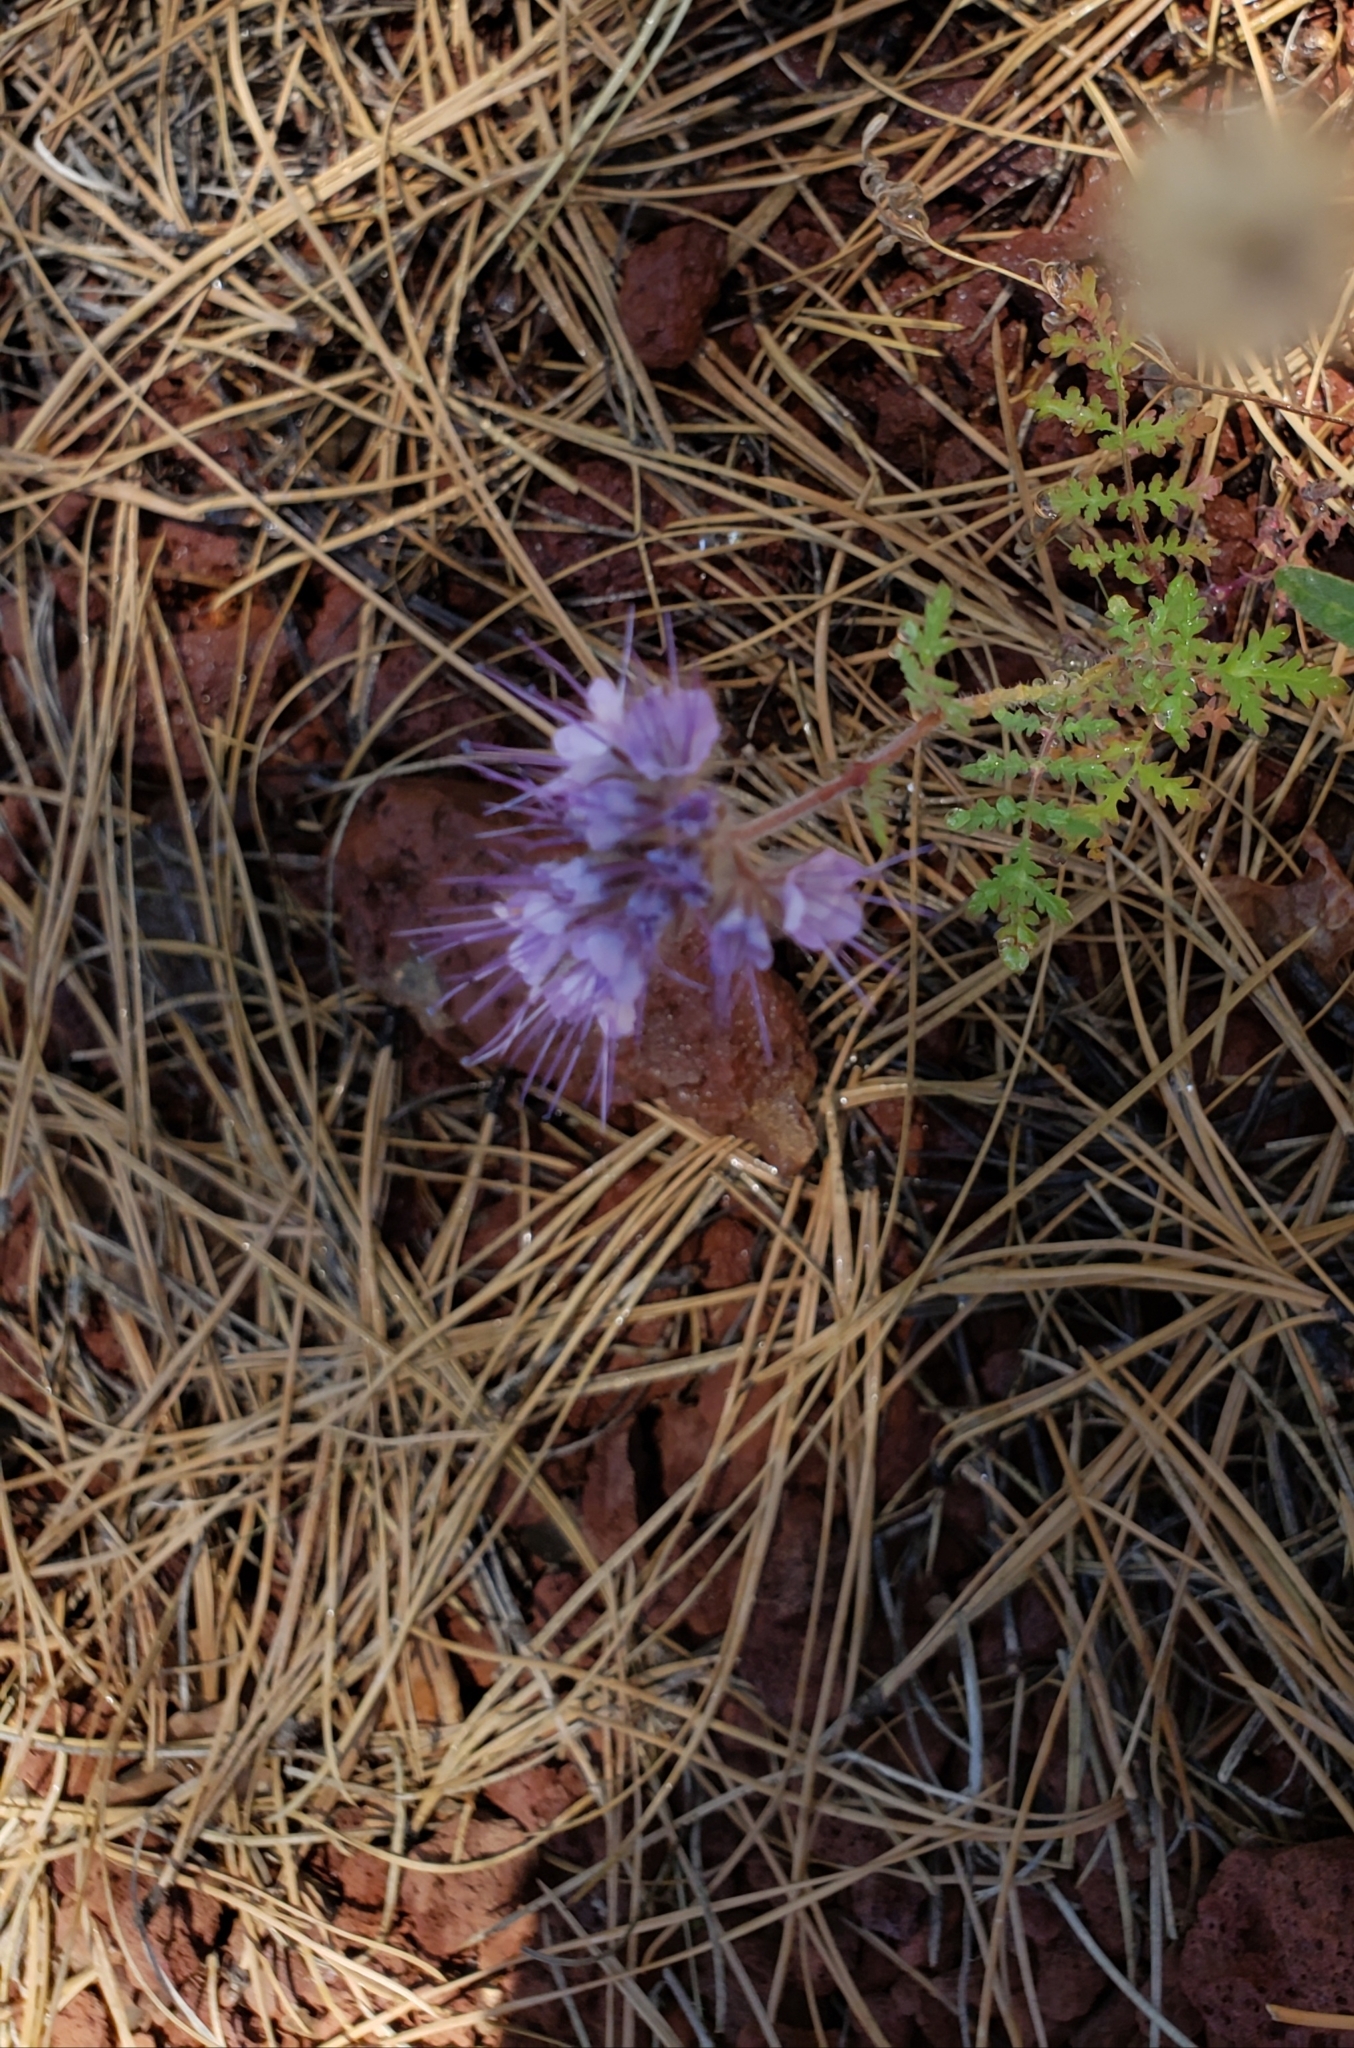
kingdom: Plantae
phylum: Tracheophyta
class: Magnoliopsida
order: Boraginales
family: Hydrophyllaceae
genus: Phacelia
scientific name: Phacelia tanacetifolia
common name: Phacelia
